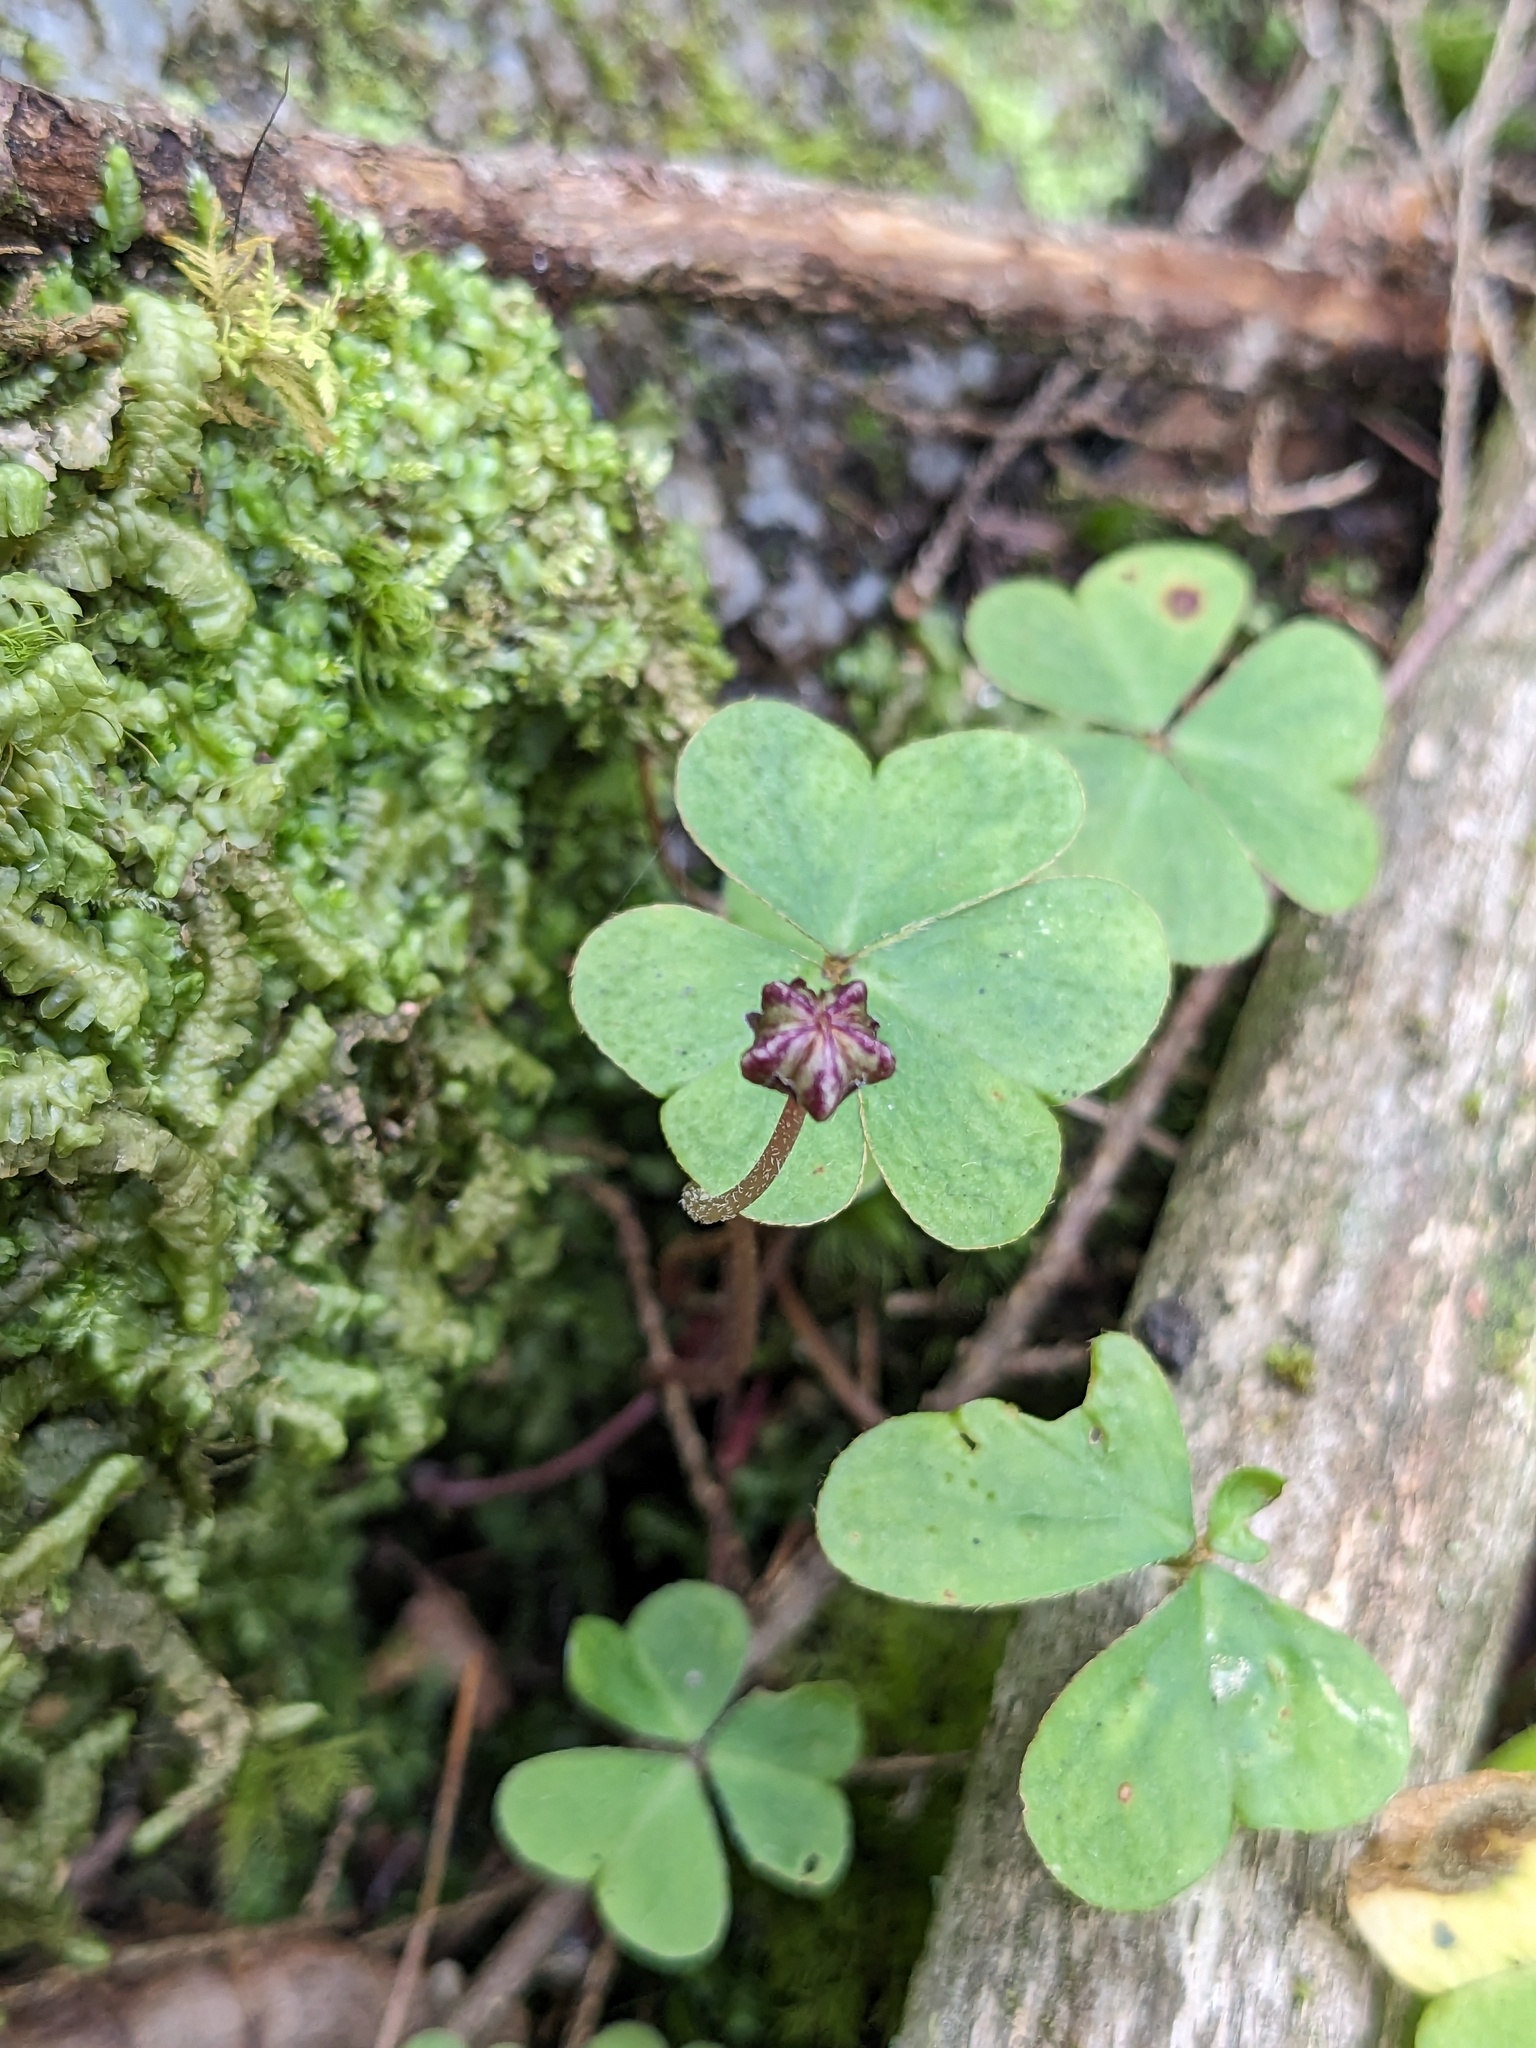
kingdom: Plantae
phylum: Tracheophyta
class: Magnoliopsida
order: Oxalidales
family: Oxalidaceae
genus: Oxalis
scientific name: Oxalis montana
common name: American wood-sorrel
